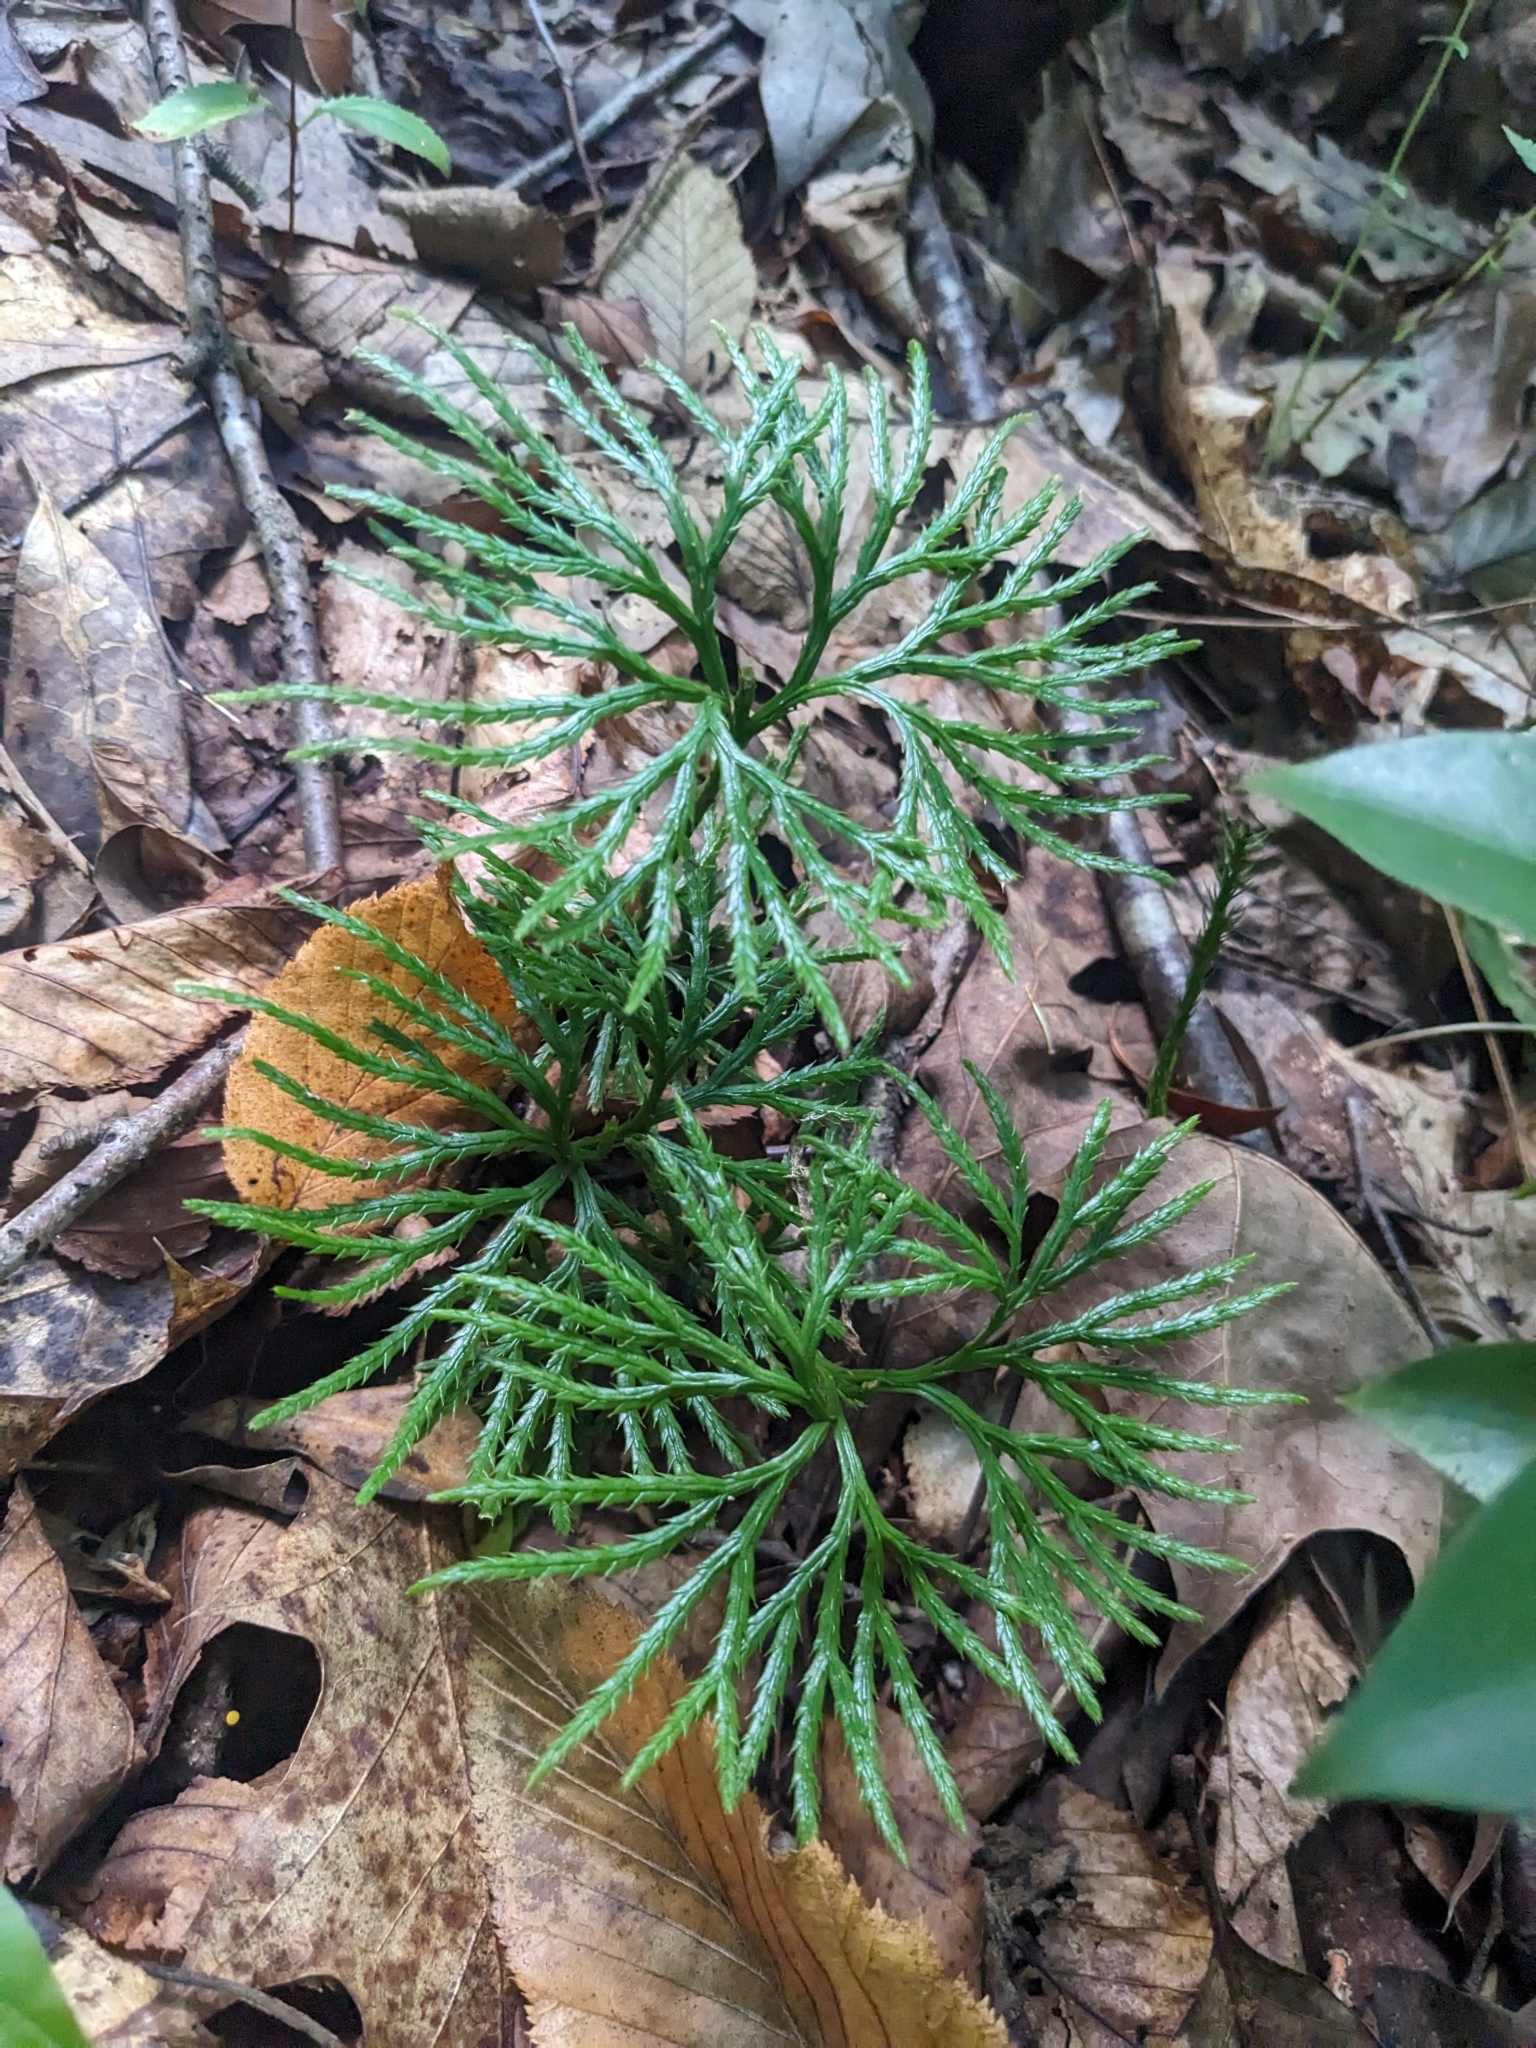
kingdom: Plantae
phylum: Tracheophyta
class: Lycopodiopsida
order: Lycopodiales
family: Lycopodiaceae
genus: Diphasiastrum
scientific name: Diphasiastrum digitatum
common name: Southern running-pine
